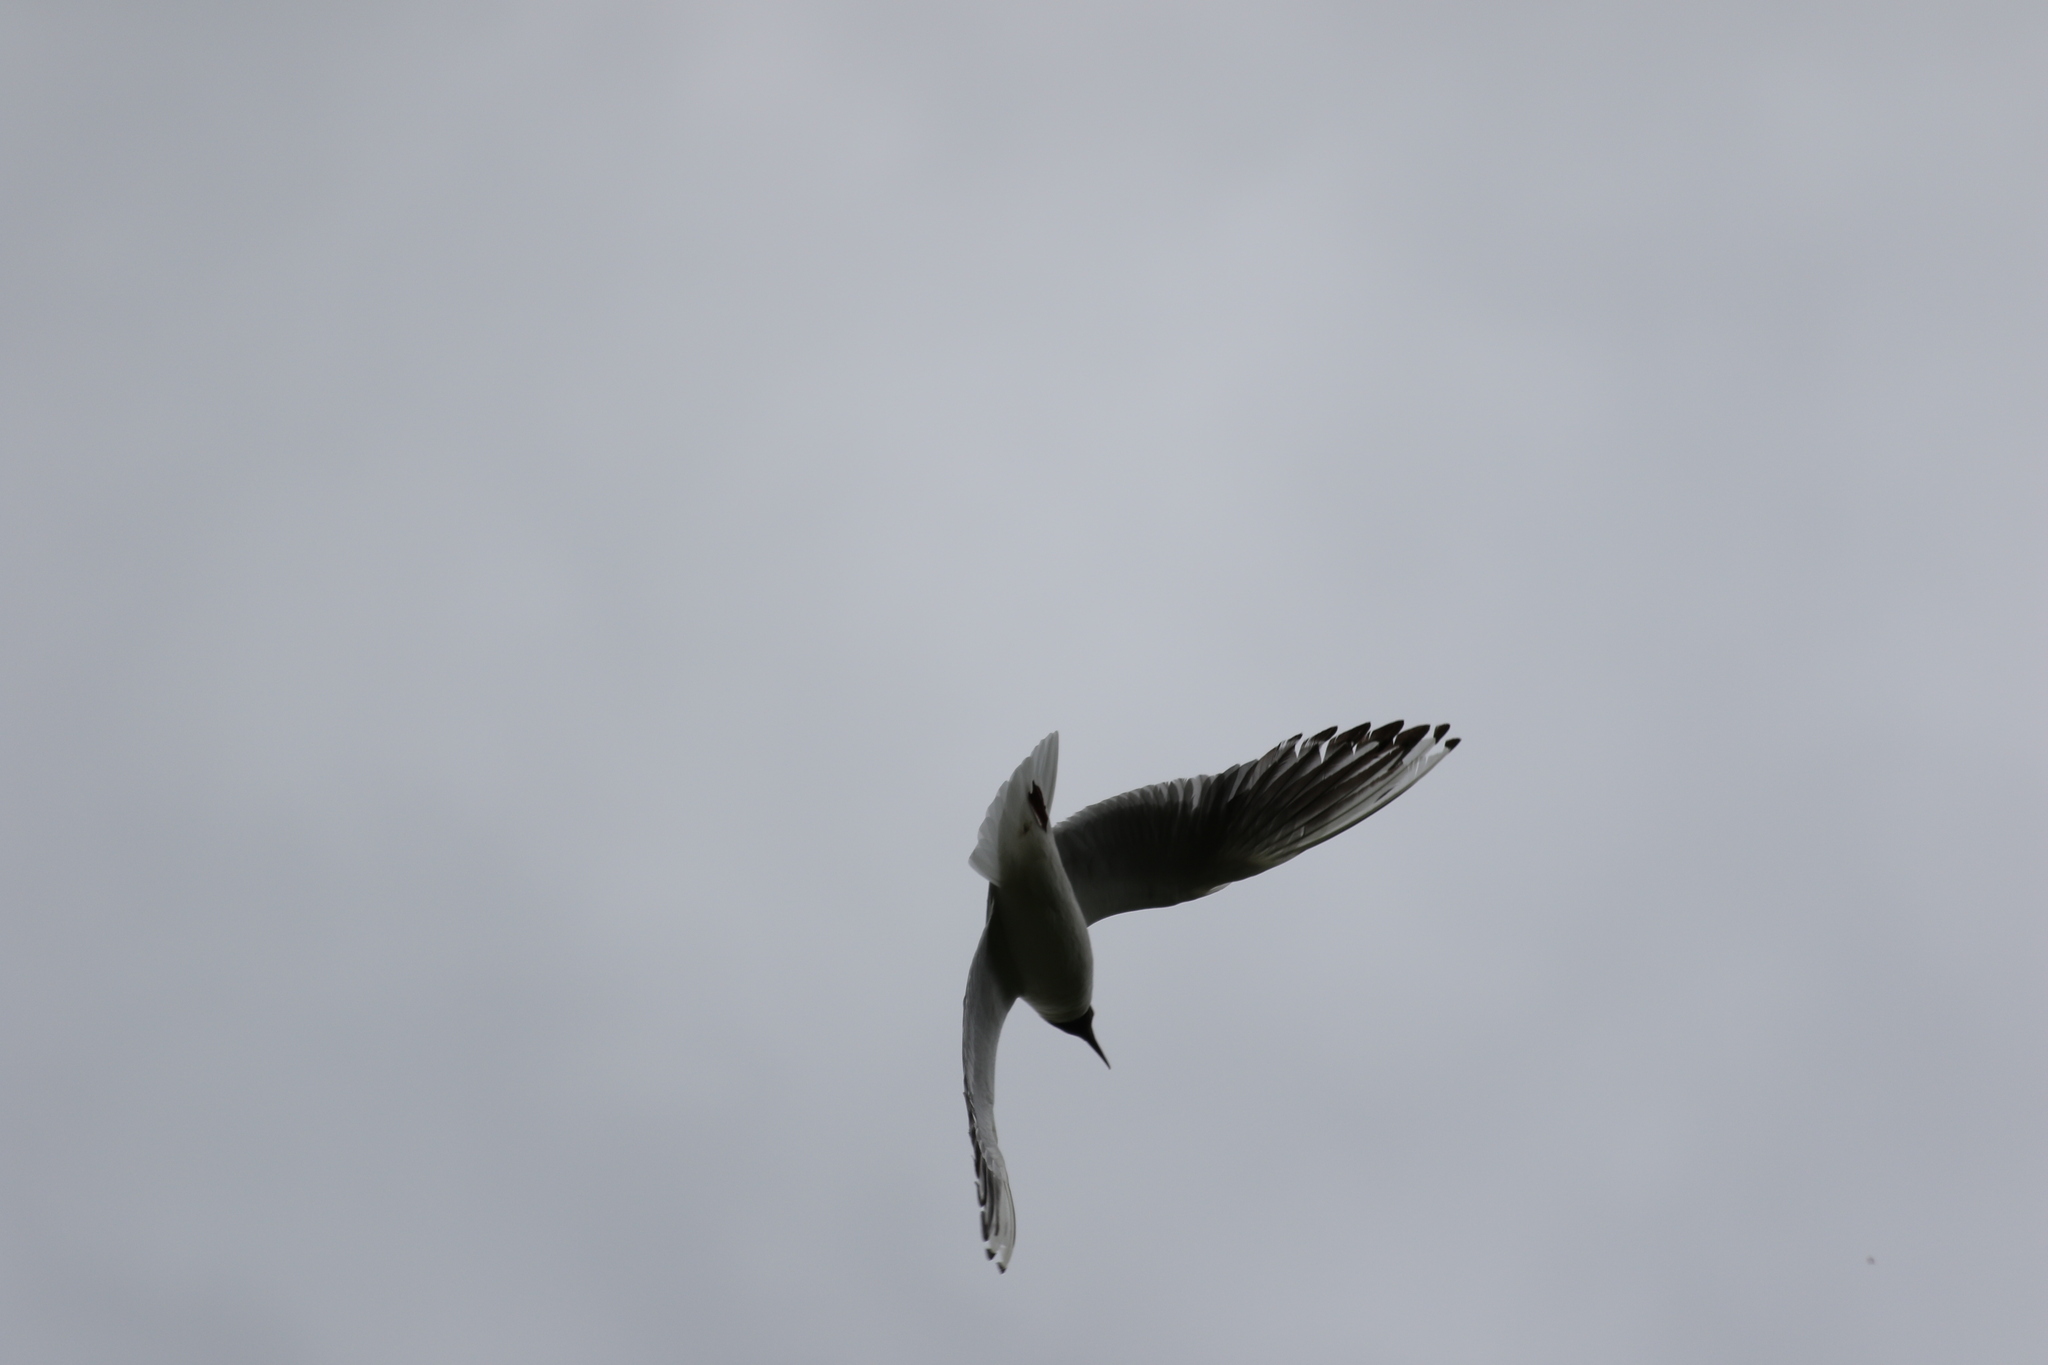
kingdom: Animalia
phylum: Chordata
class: Aves
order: Charadriiformes
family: Laridae
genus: Chroicocephalus
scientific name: Chroicocephalus ridibundus
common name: Black-headed gull
